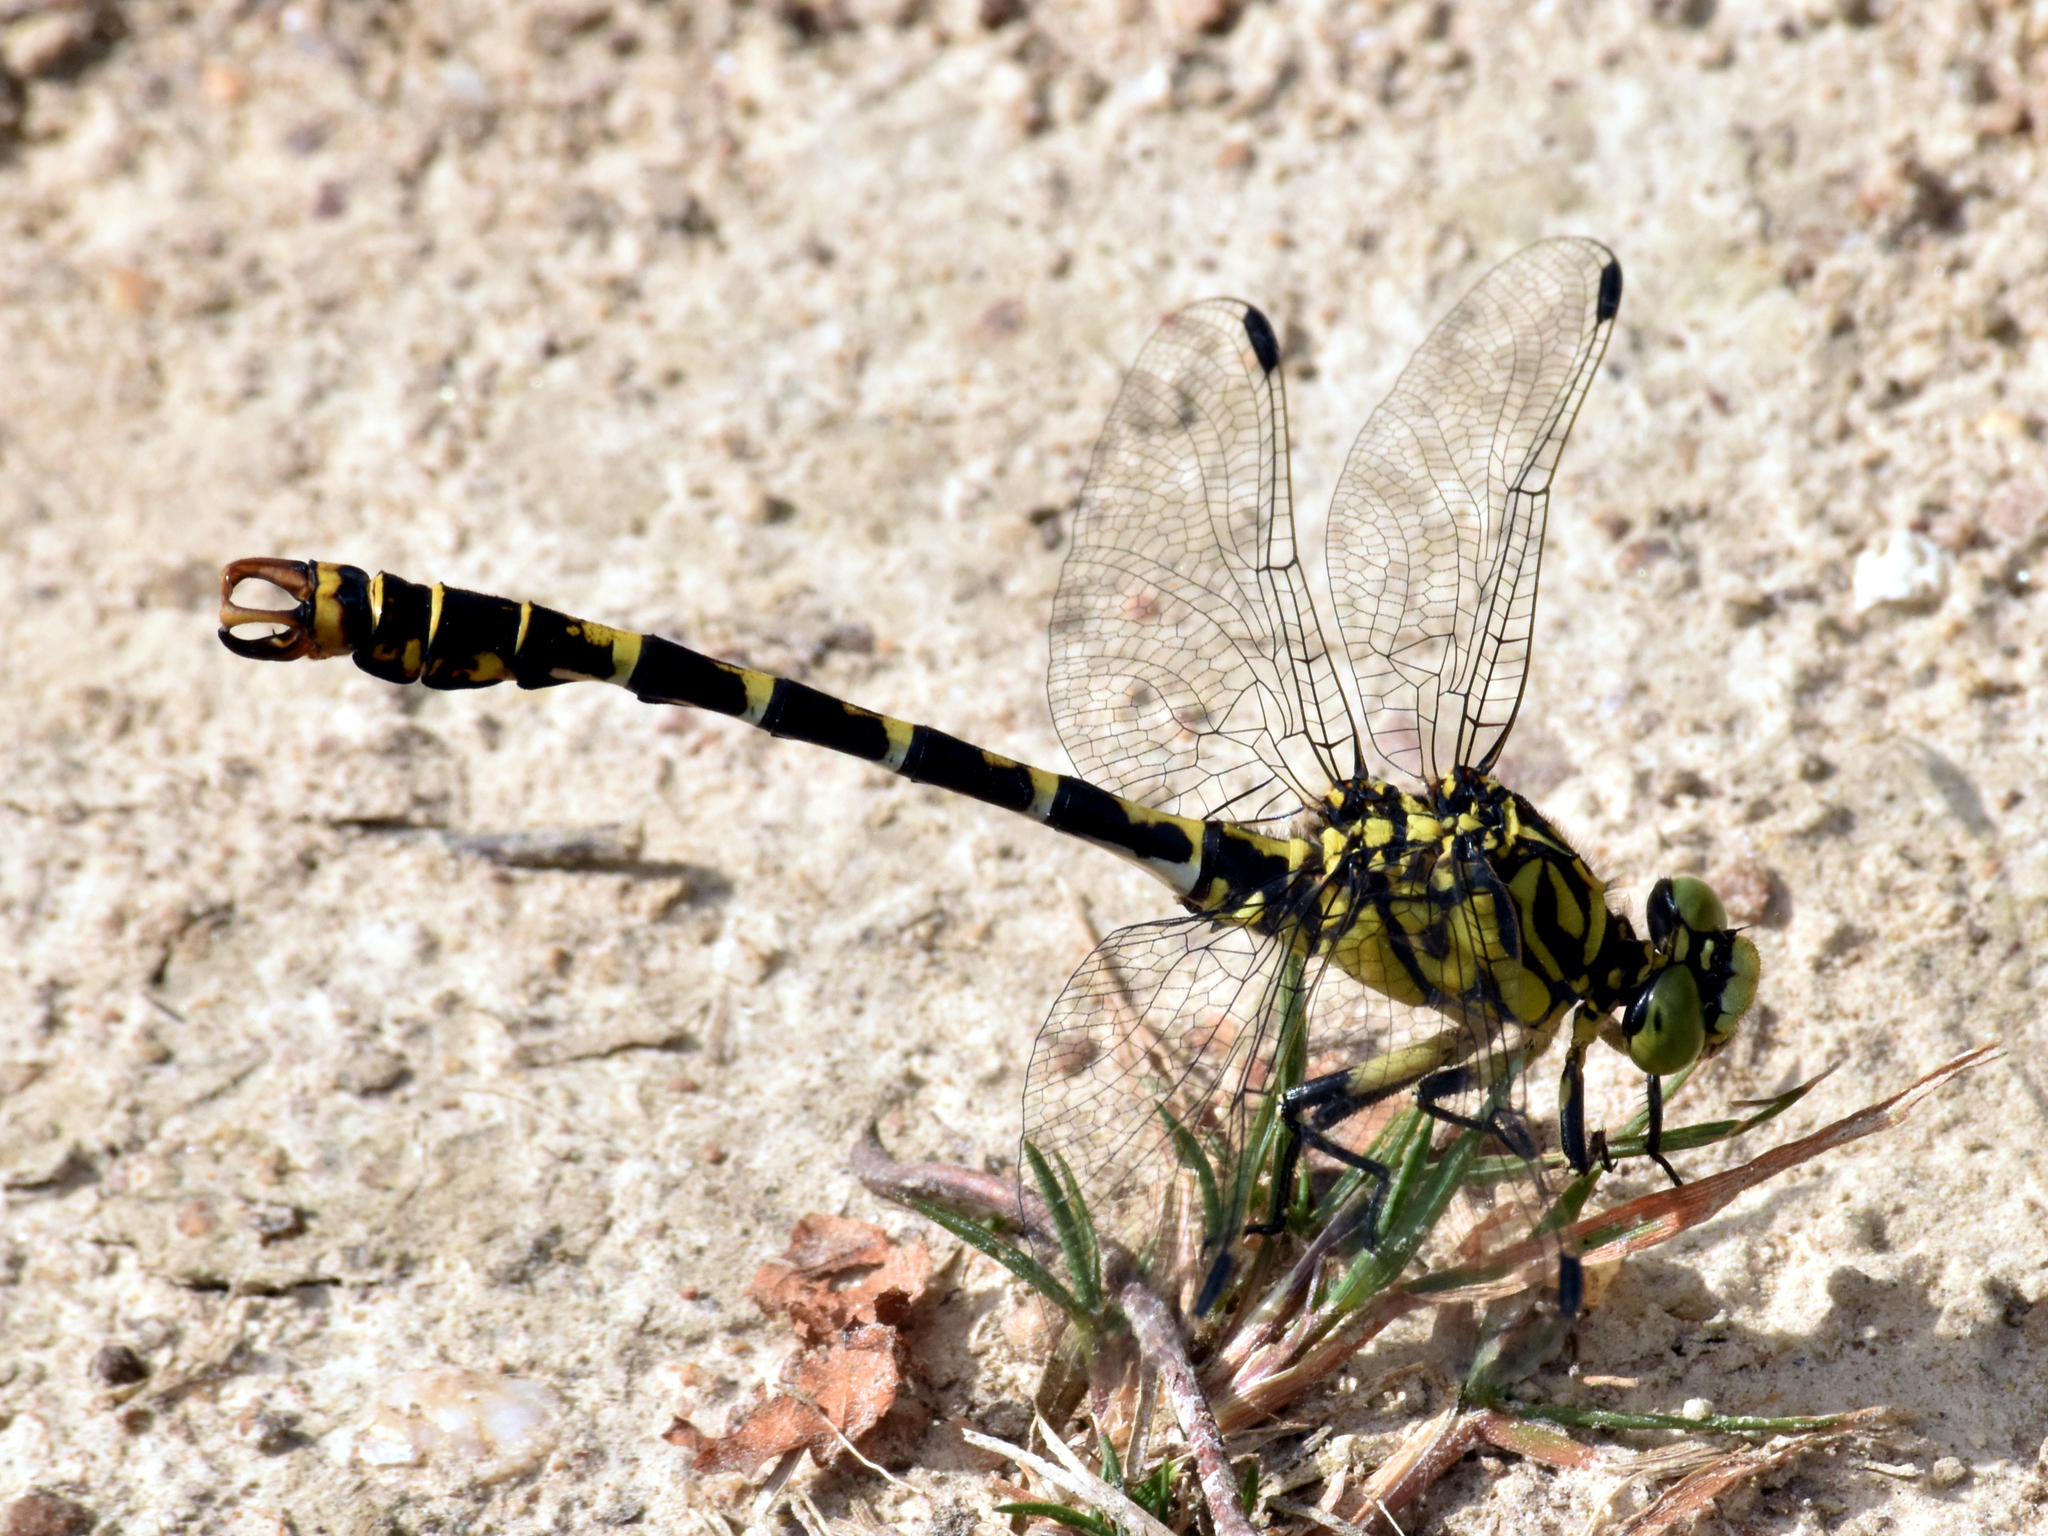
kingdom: Animalia
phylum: Arthropoda
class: Insecta
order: Odonata
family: Gomphidae
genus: Onychogomphus
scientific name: Onychogomphus forcipatus
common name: Small pincertail
